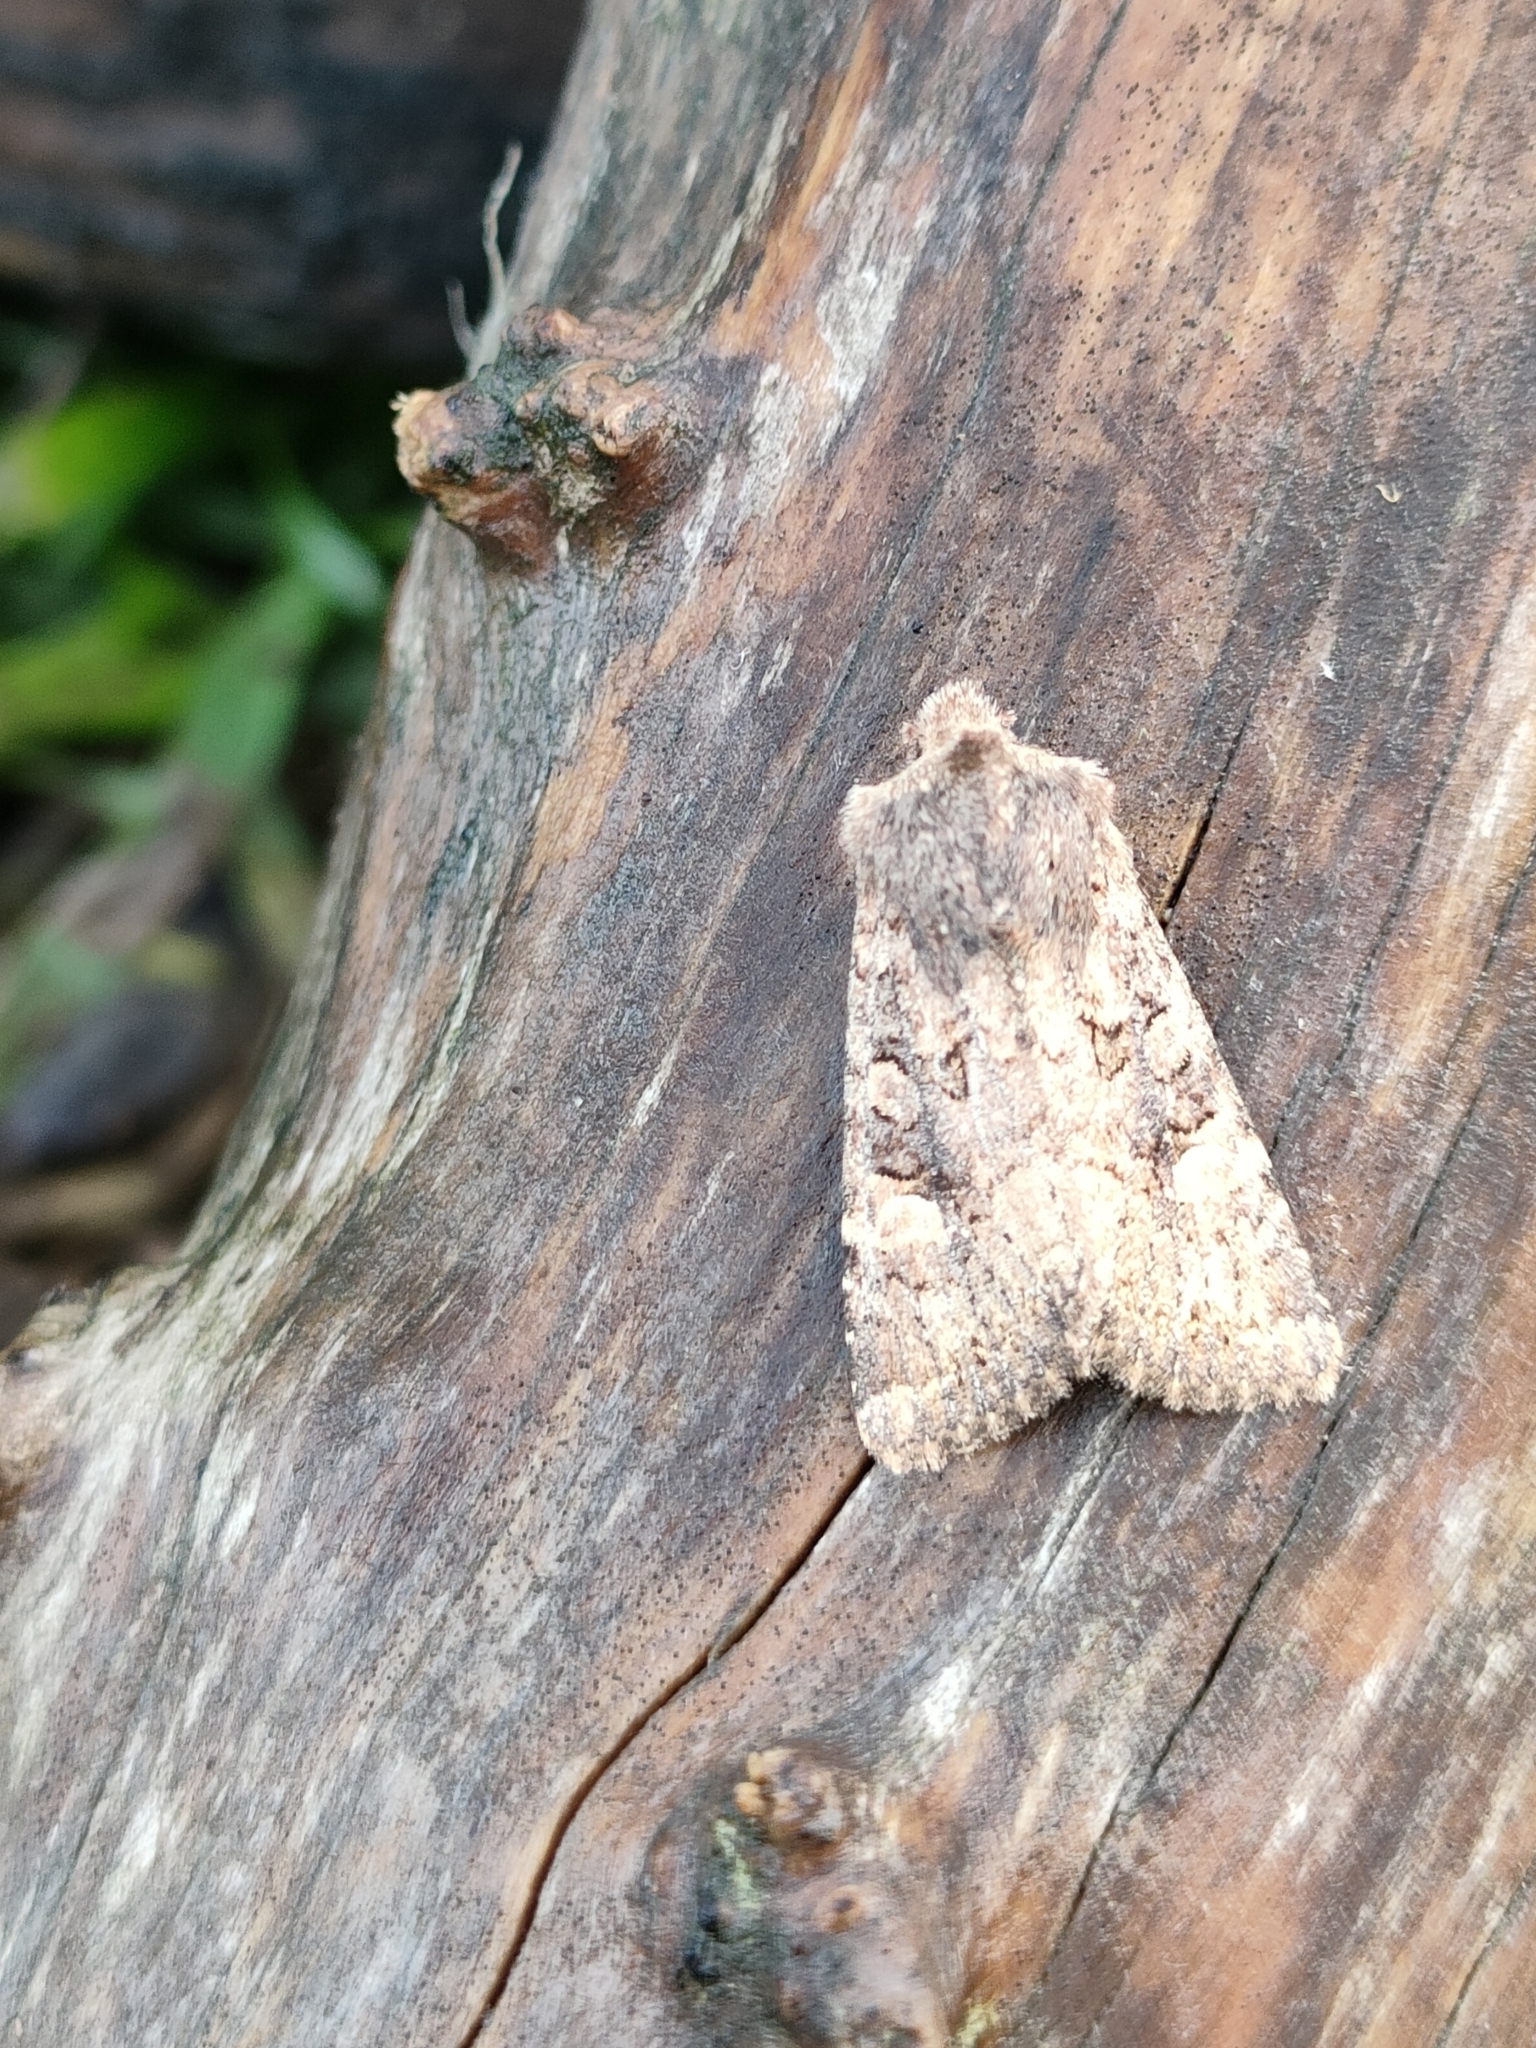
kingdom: Animalia
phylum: Arthropoda
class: Insecta
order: Lepidoptera
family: Noctuidae
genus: Dryobota
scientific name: Dryobota labecula
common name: Oak rustic
